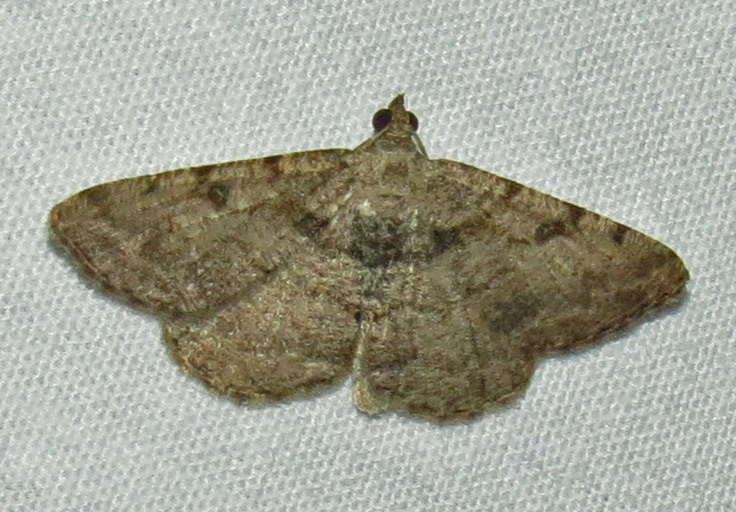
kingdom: Animalia
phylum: Arthropoda
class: Insecta
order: Lepidoptera
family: Geometridae
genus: Digrammia
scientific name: Digrammia gnophosaria
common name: Hollow-spotted angle
